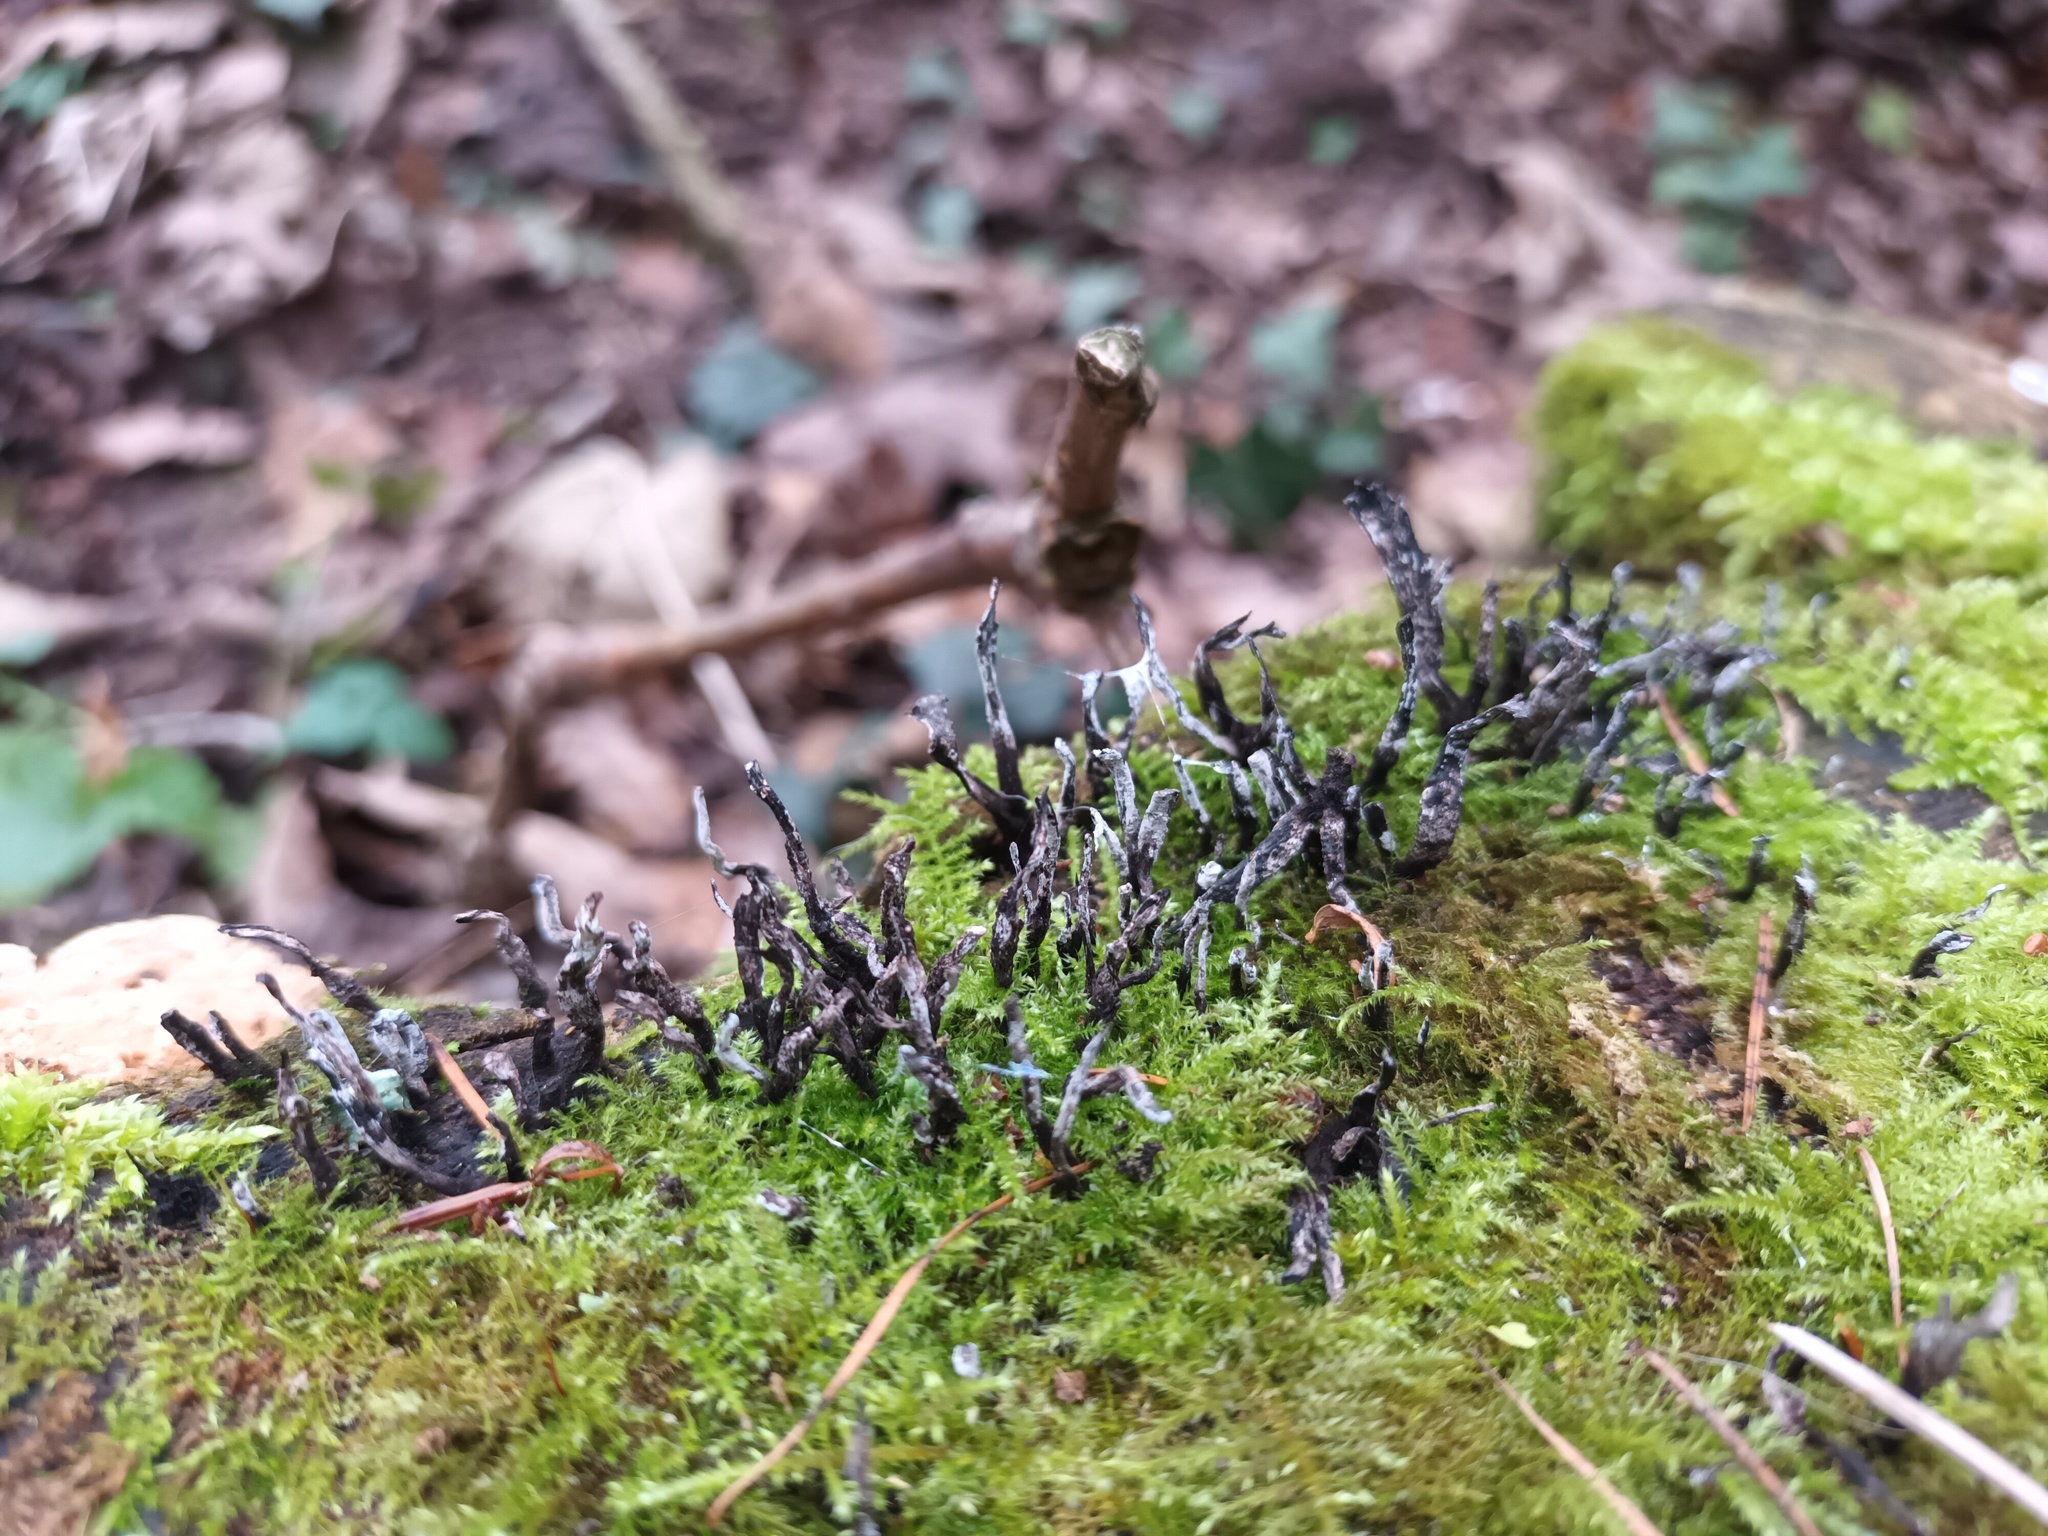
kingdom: Fungi
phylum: Ascomycota
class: Sordariomycetes
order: Xylariales
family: Xylariaceae
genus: Xylaria
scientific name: Xylaria hypoxylon
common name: Candle-snuff fungus
